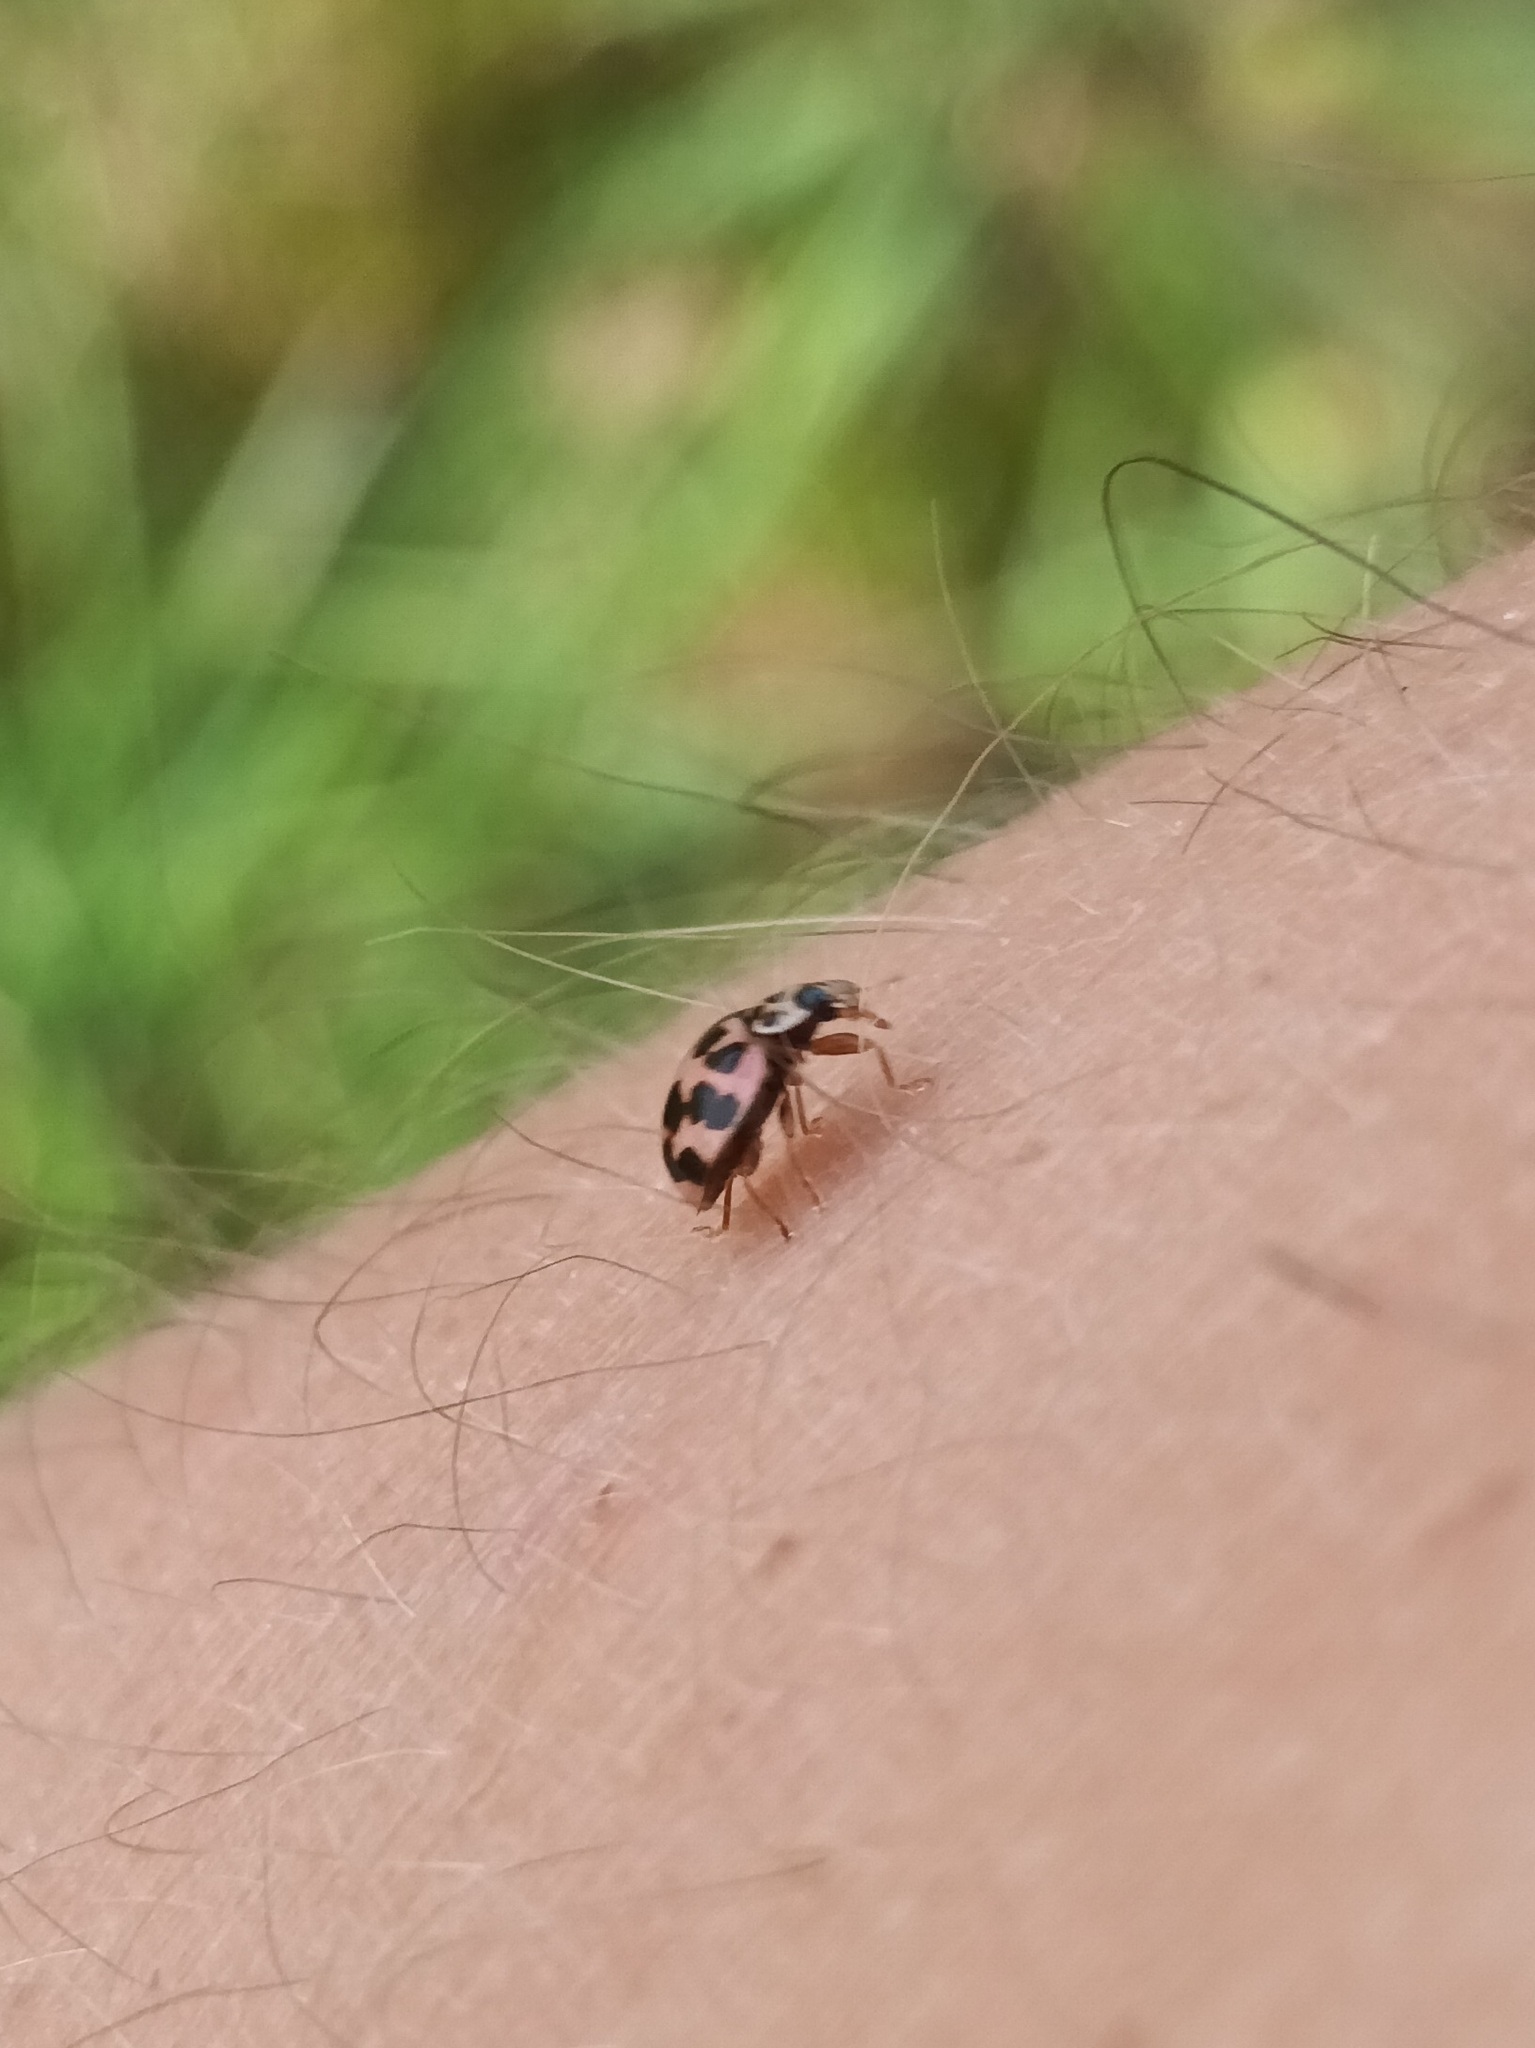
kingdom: Animalia
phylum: Arthropoda
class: Insecta
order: Coleoptera
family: Coccinellidae
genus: Oenopia
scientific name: Oenopia conglobata
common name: Ladybird beetle
